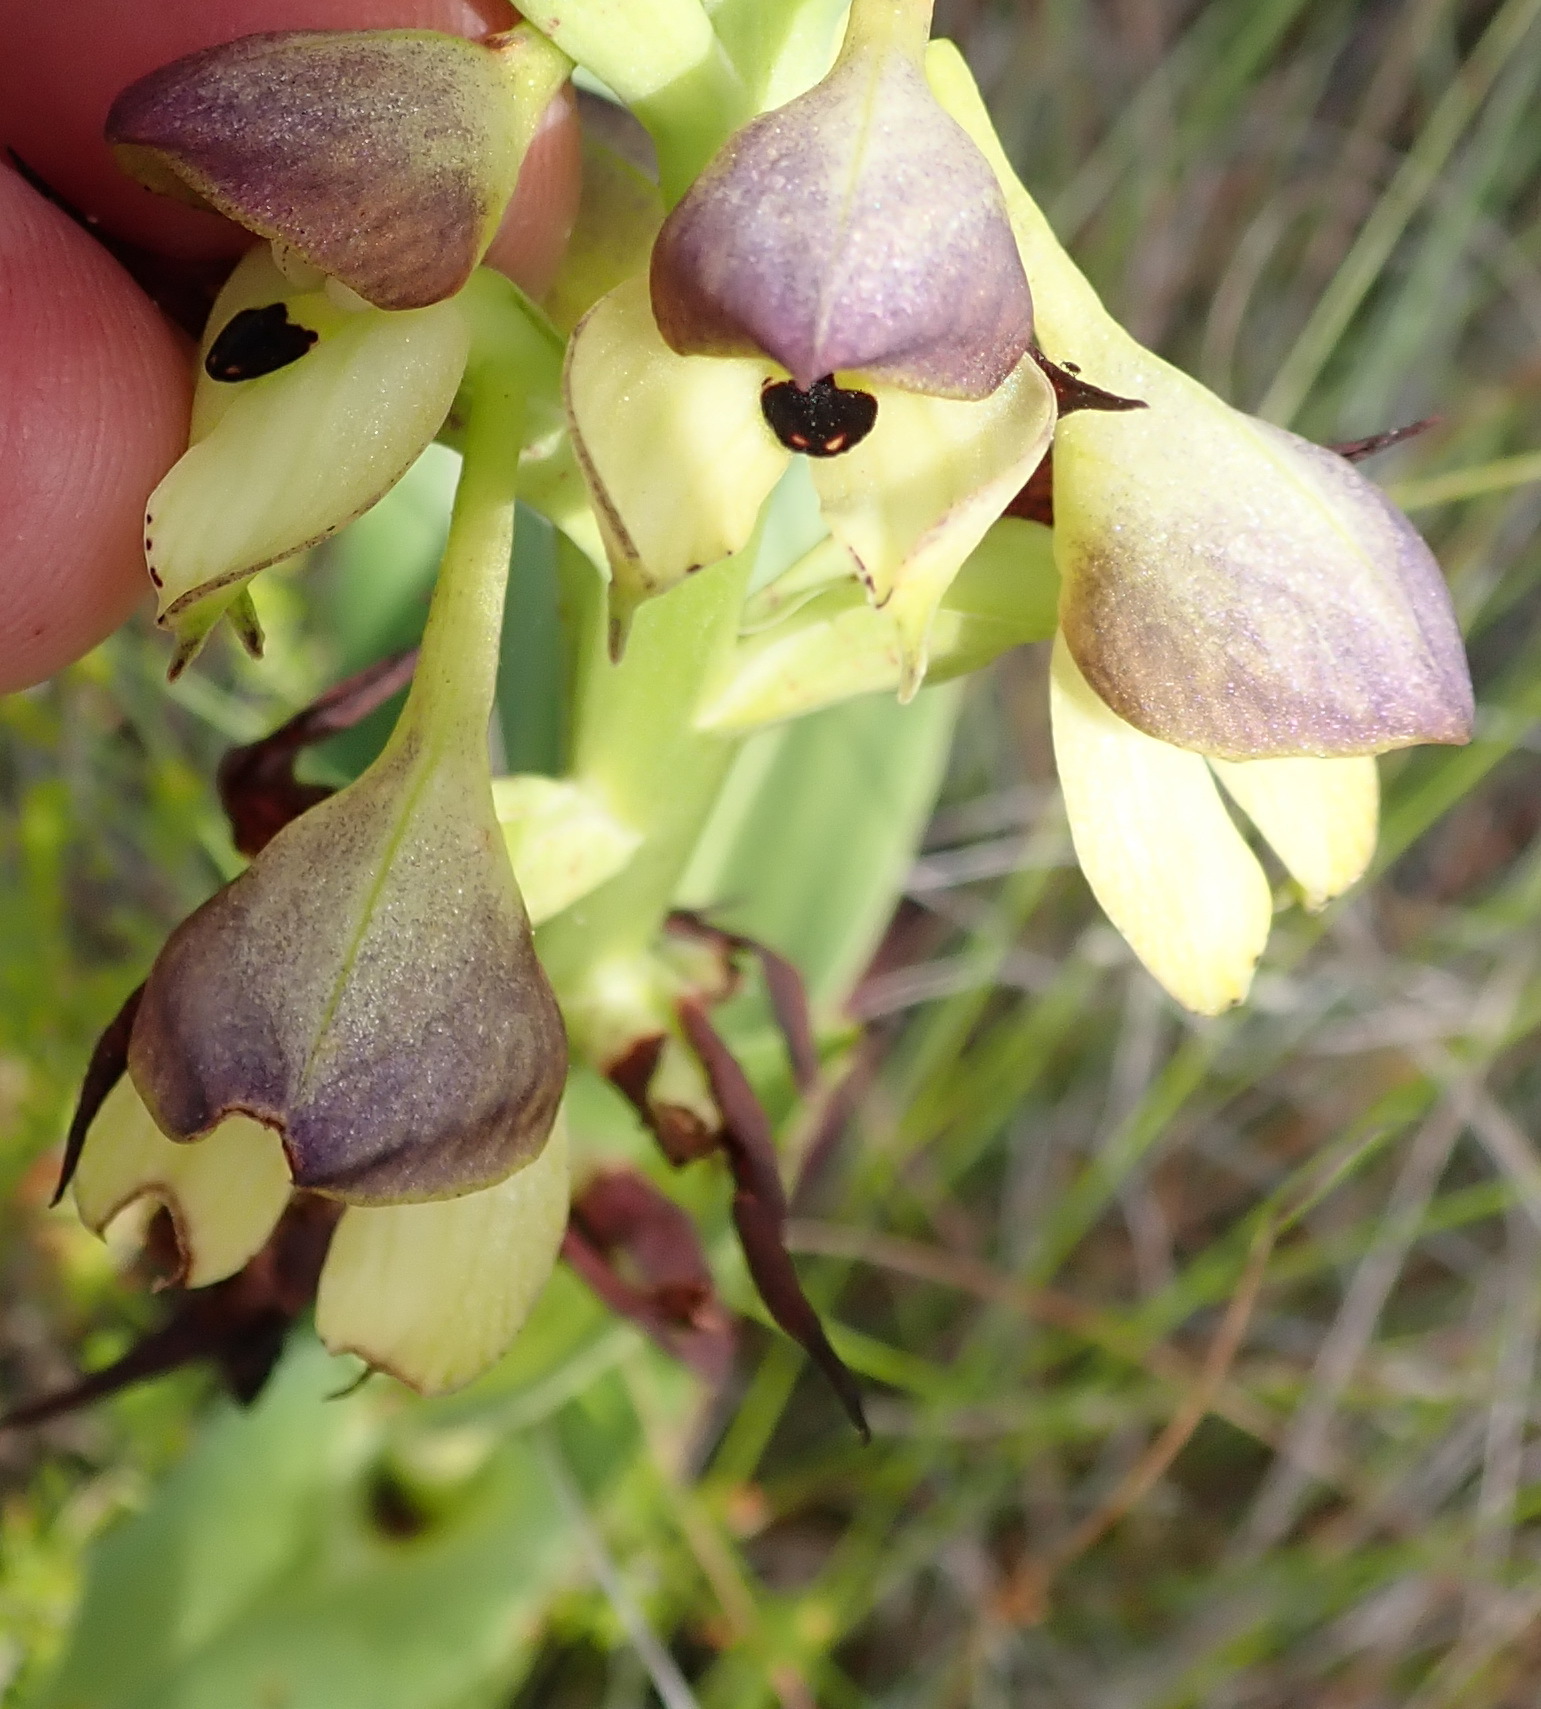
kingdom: Plantae
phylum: Tracheophyta
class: Liliopsida
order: Asparagales
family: Orchidaceae
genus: Disa
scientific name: Disa cornuta
